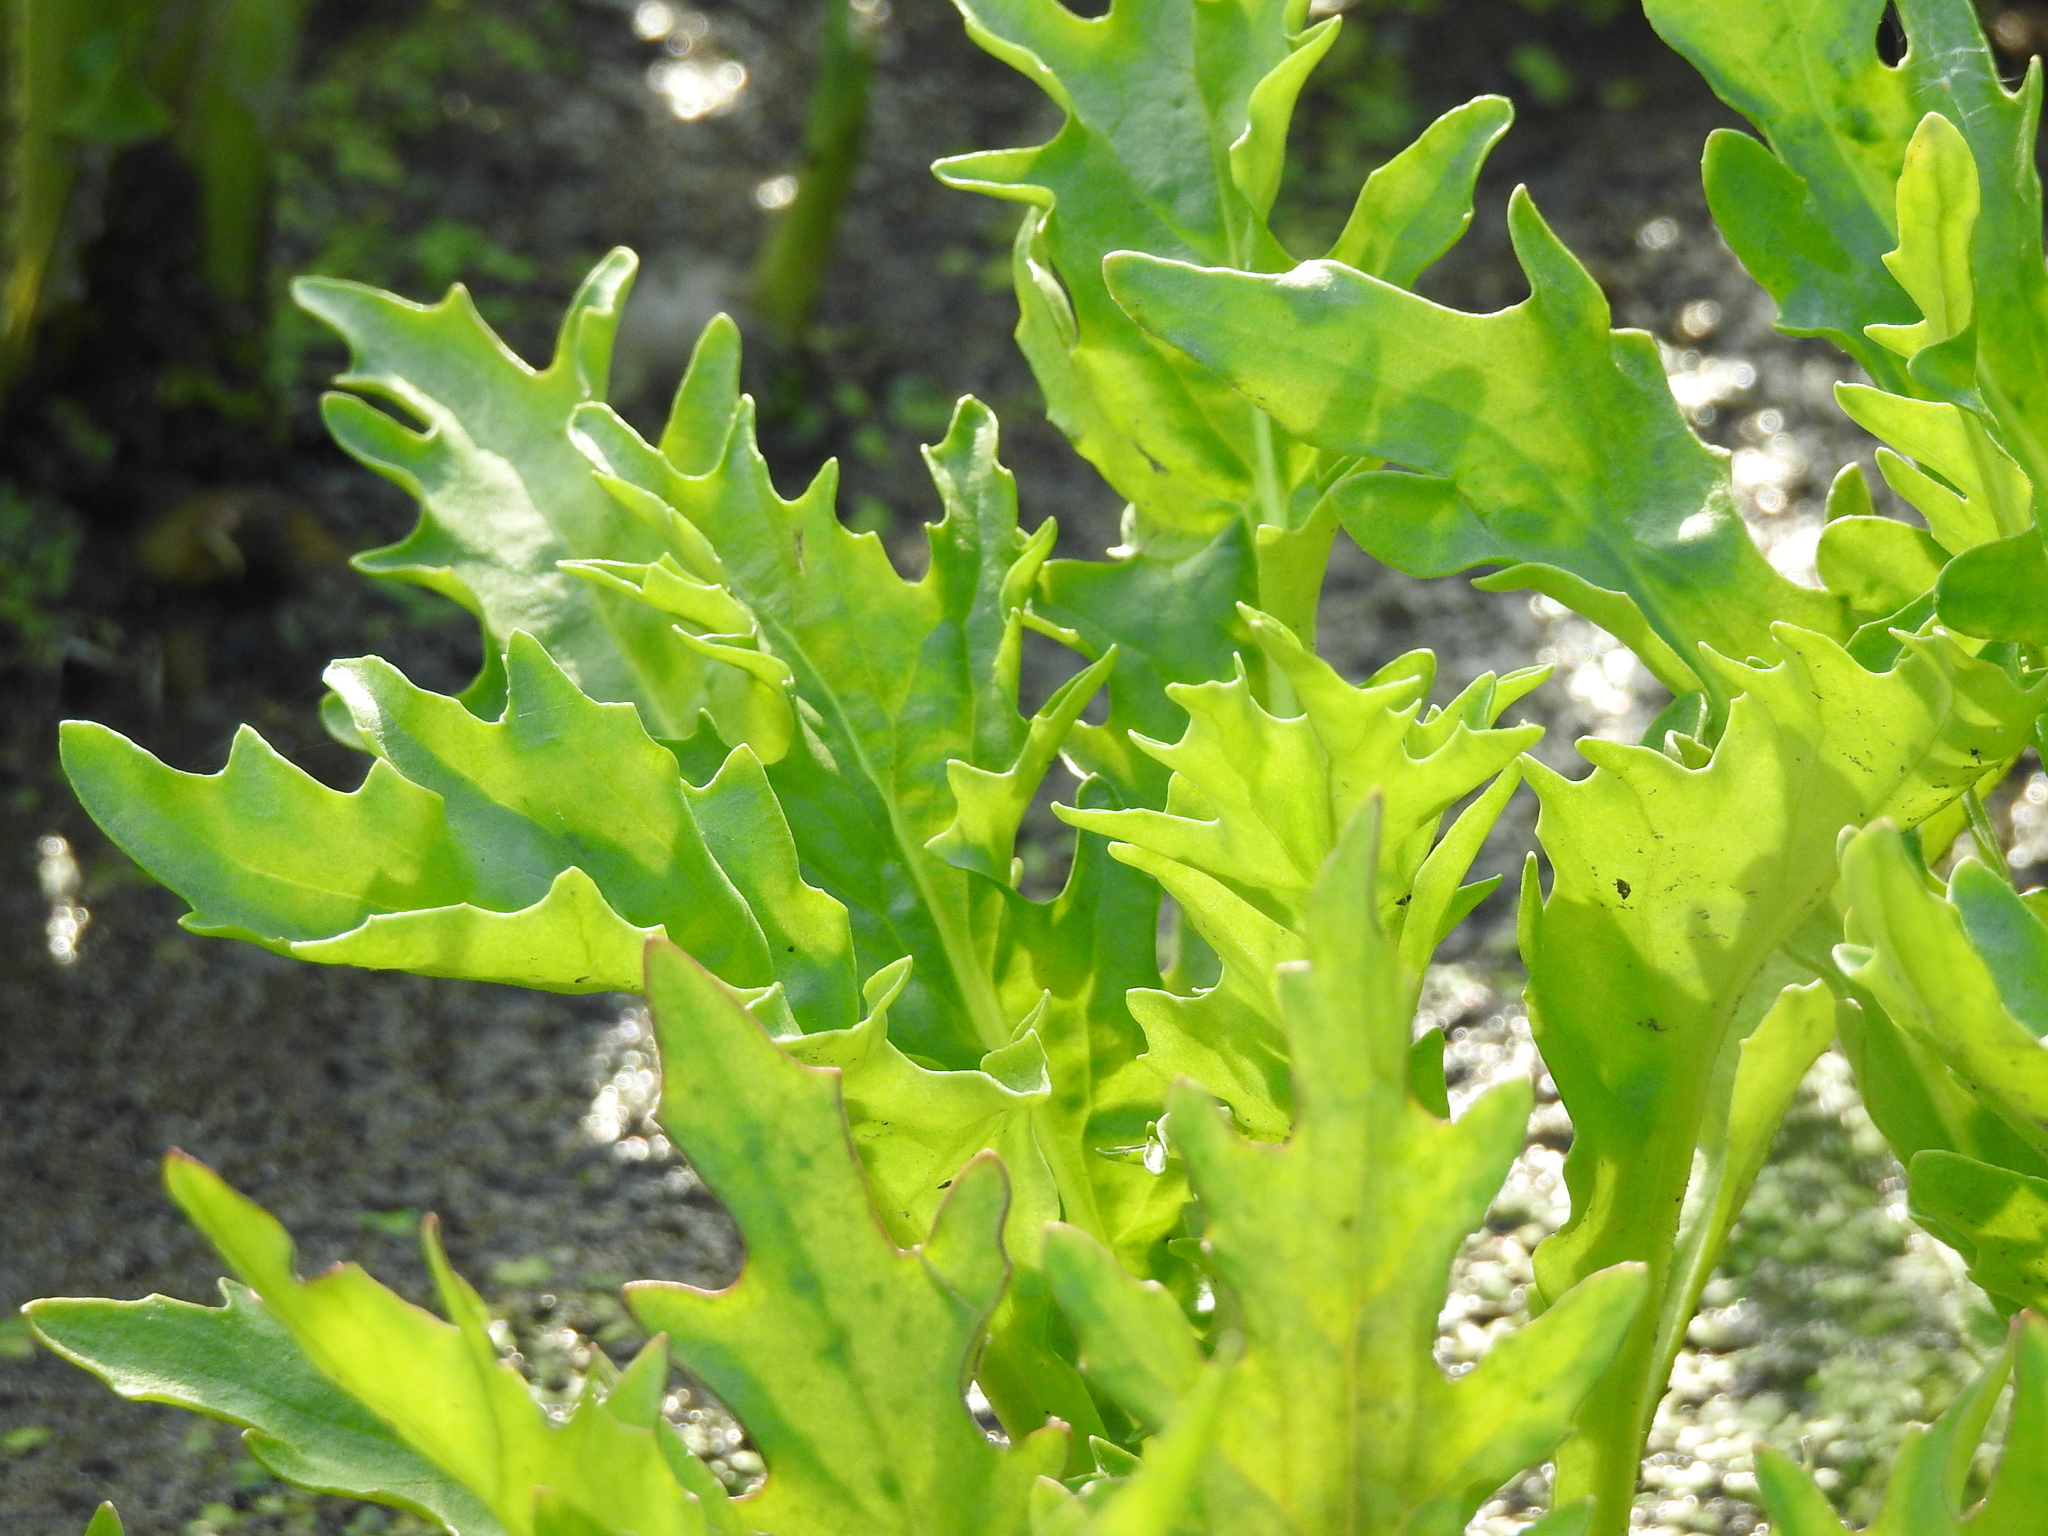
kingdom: Plantae
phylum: Tracheophyta
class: Magnoliopsida
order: Asterales
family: Asteraceae
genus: Tephroseris
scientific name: Tephroseris palustris
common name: Marsh fleawort
